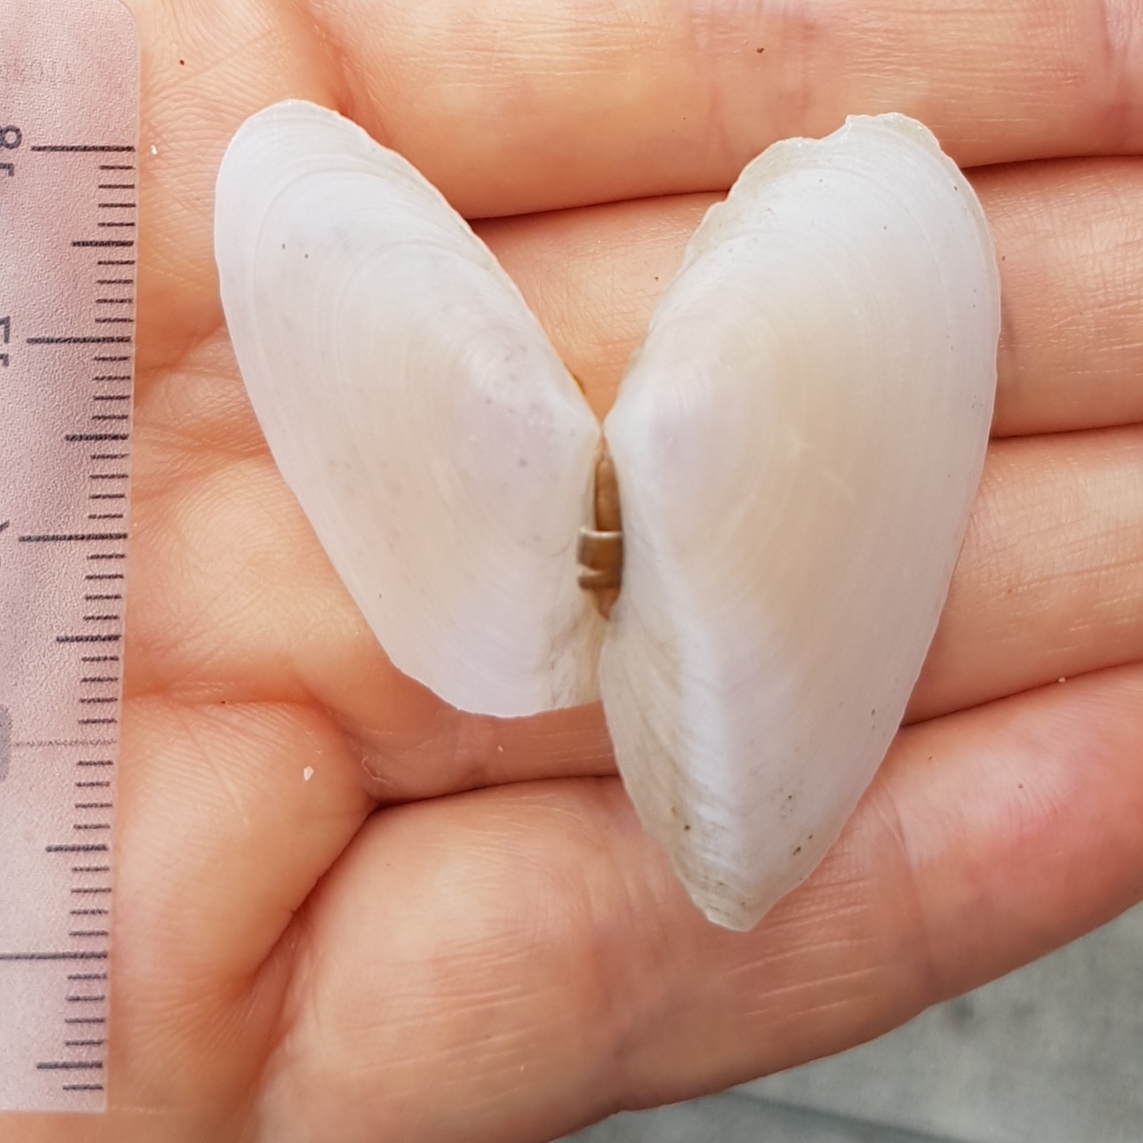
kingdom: Animalia
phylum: Mollusca
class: Bivalvia
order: Cardiida
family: Tellinidae
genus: Peronaea
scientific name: Peronaea planata
